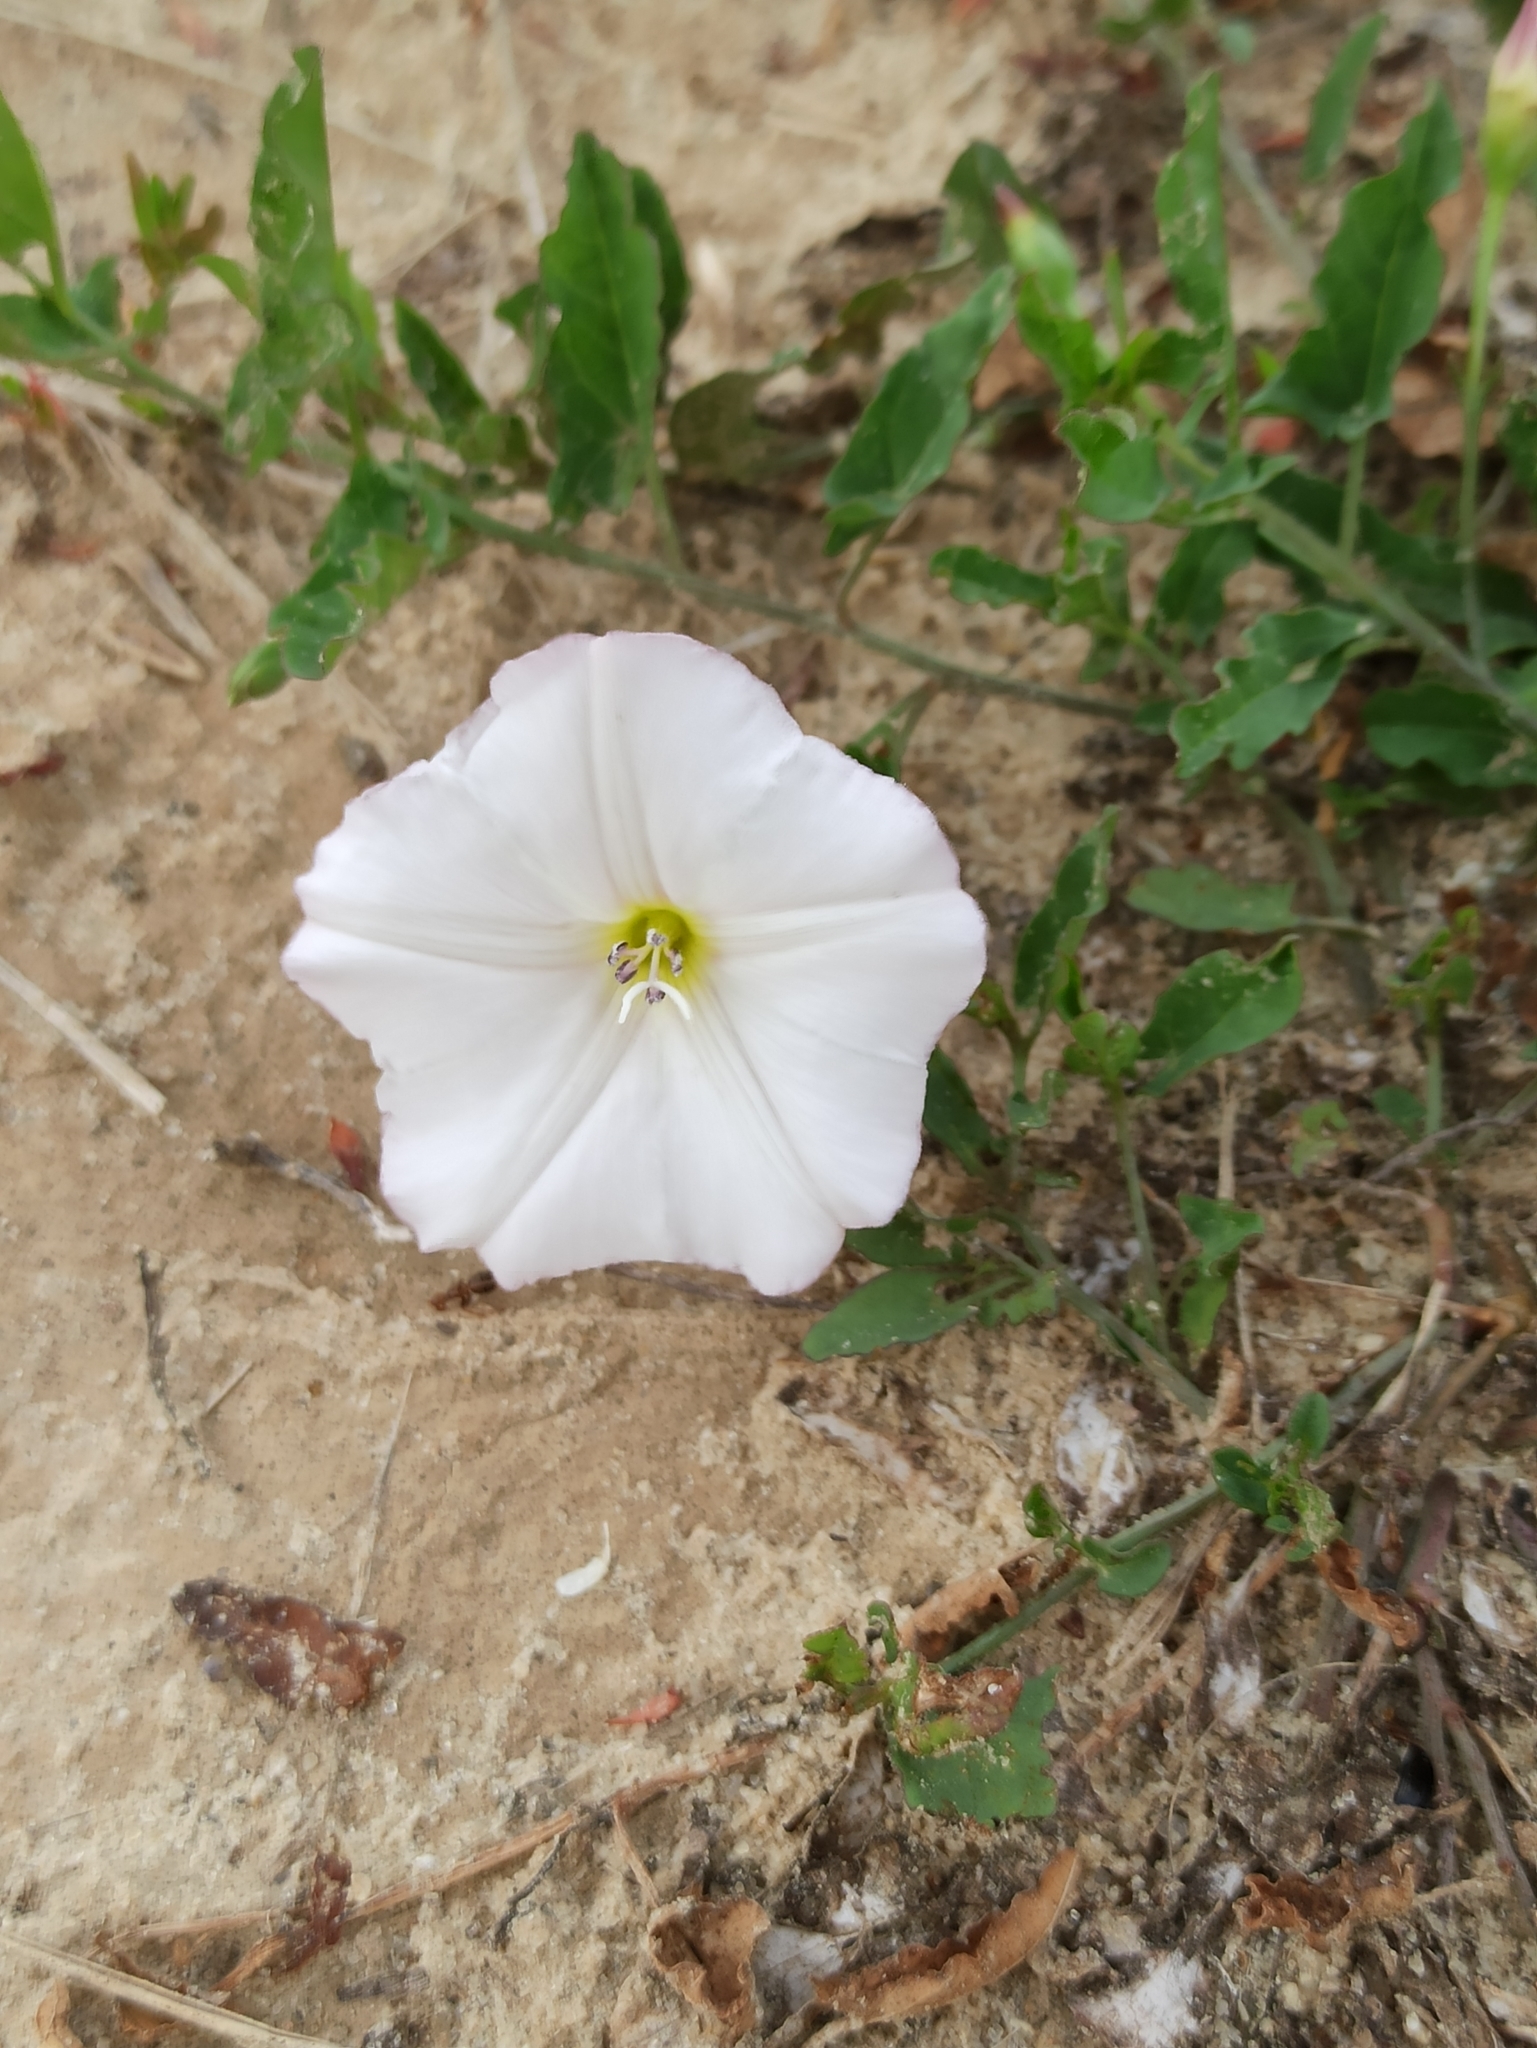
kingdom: Plantae
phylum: Tracheophyta
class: Magnoliopsida
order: Solanales
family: Convolvulaceae
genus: Convolvulus
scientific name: Convolvulus arvensis
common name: Field bindweed
